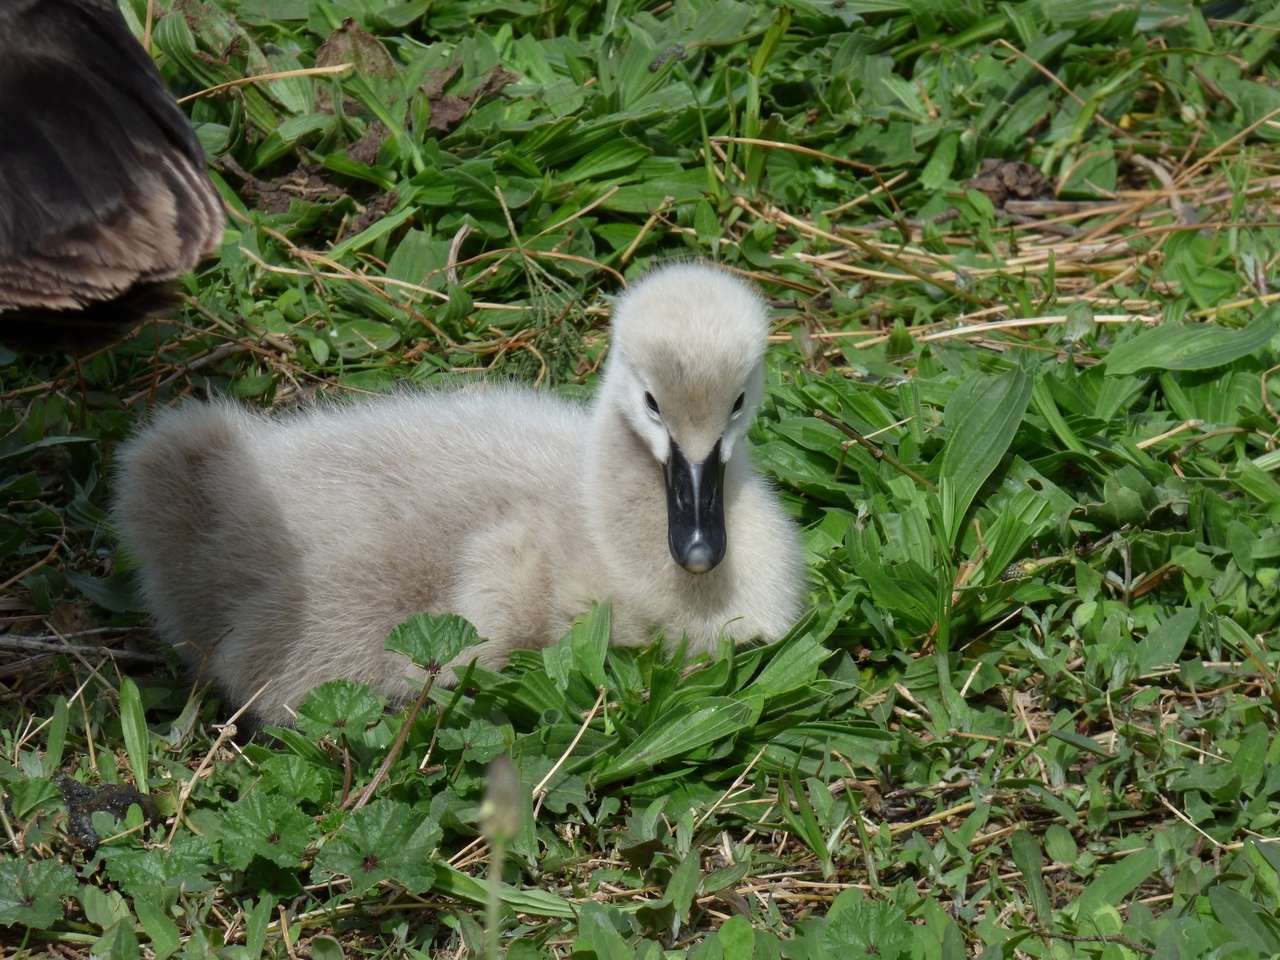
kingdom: Animalia
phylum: Chordata
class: Aves
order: Anseriformes
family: Anatidae
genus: Cygnus
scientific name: Cygnus atratus
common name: Black swan
